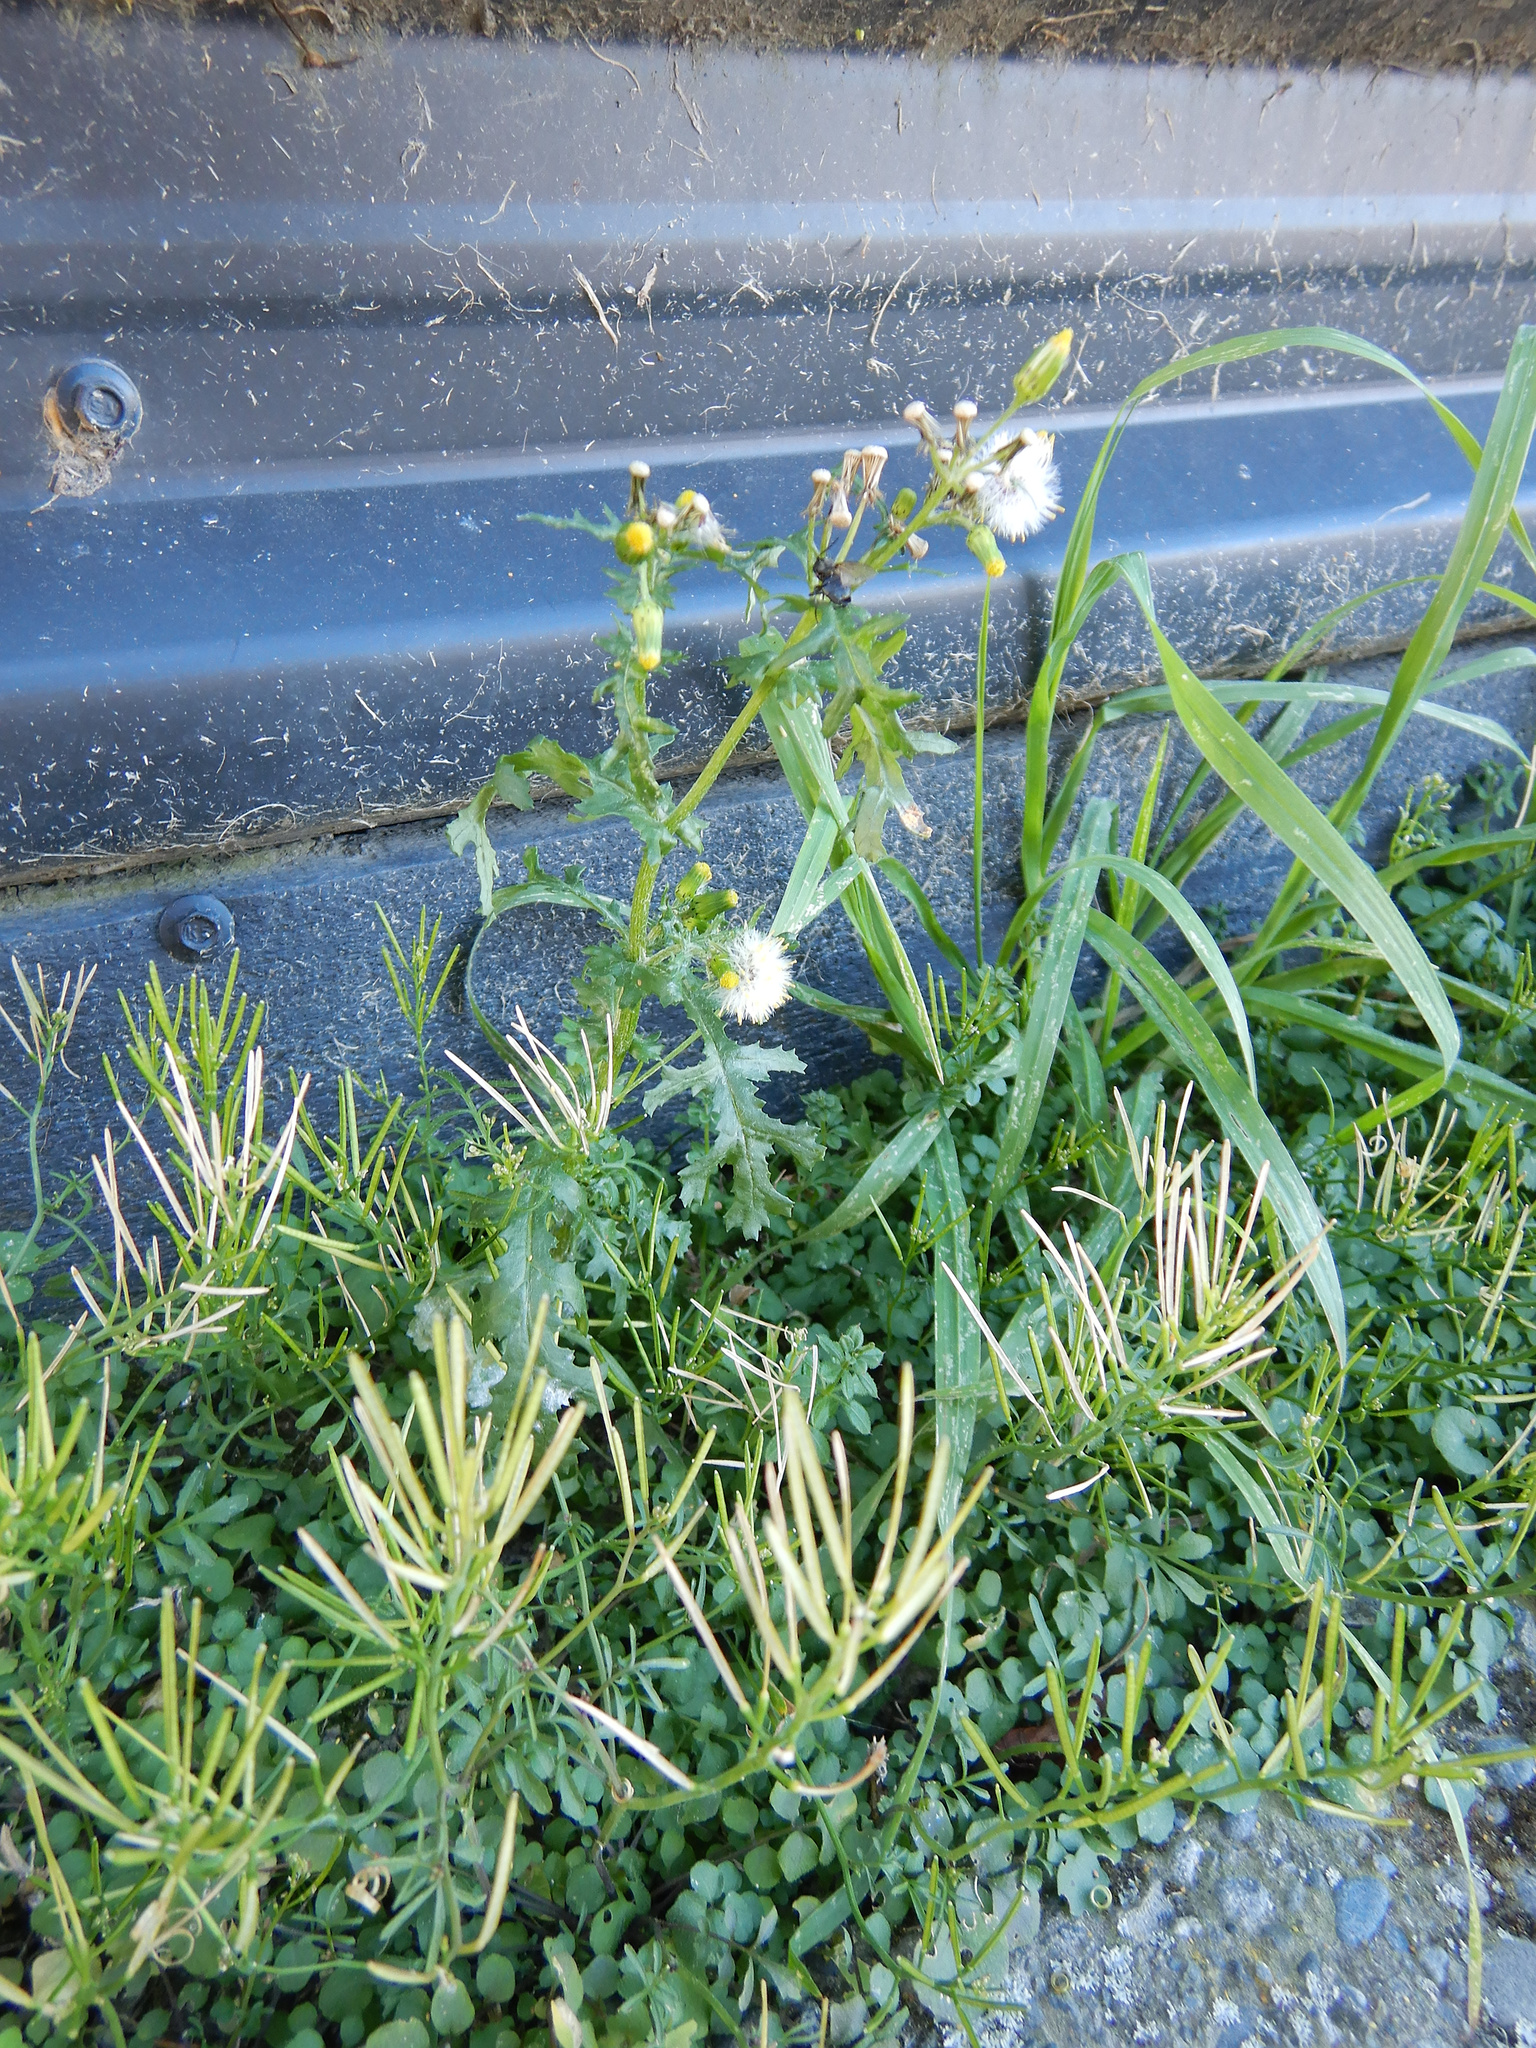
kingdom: Plantae
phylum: Tracheophyta
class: Magnoliopsida
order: Asterales
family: Asteraceae
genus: Senecio
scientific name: Senecio vulgaris
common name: Old-man-in-the-spring
